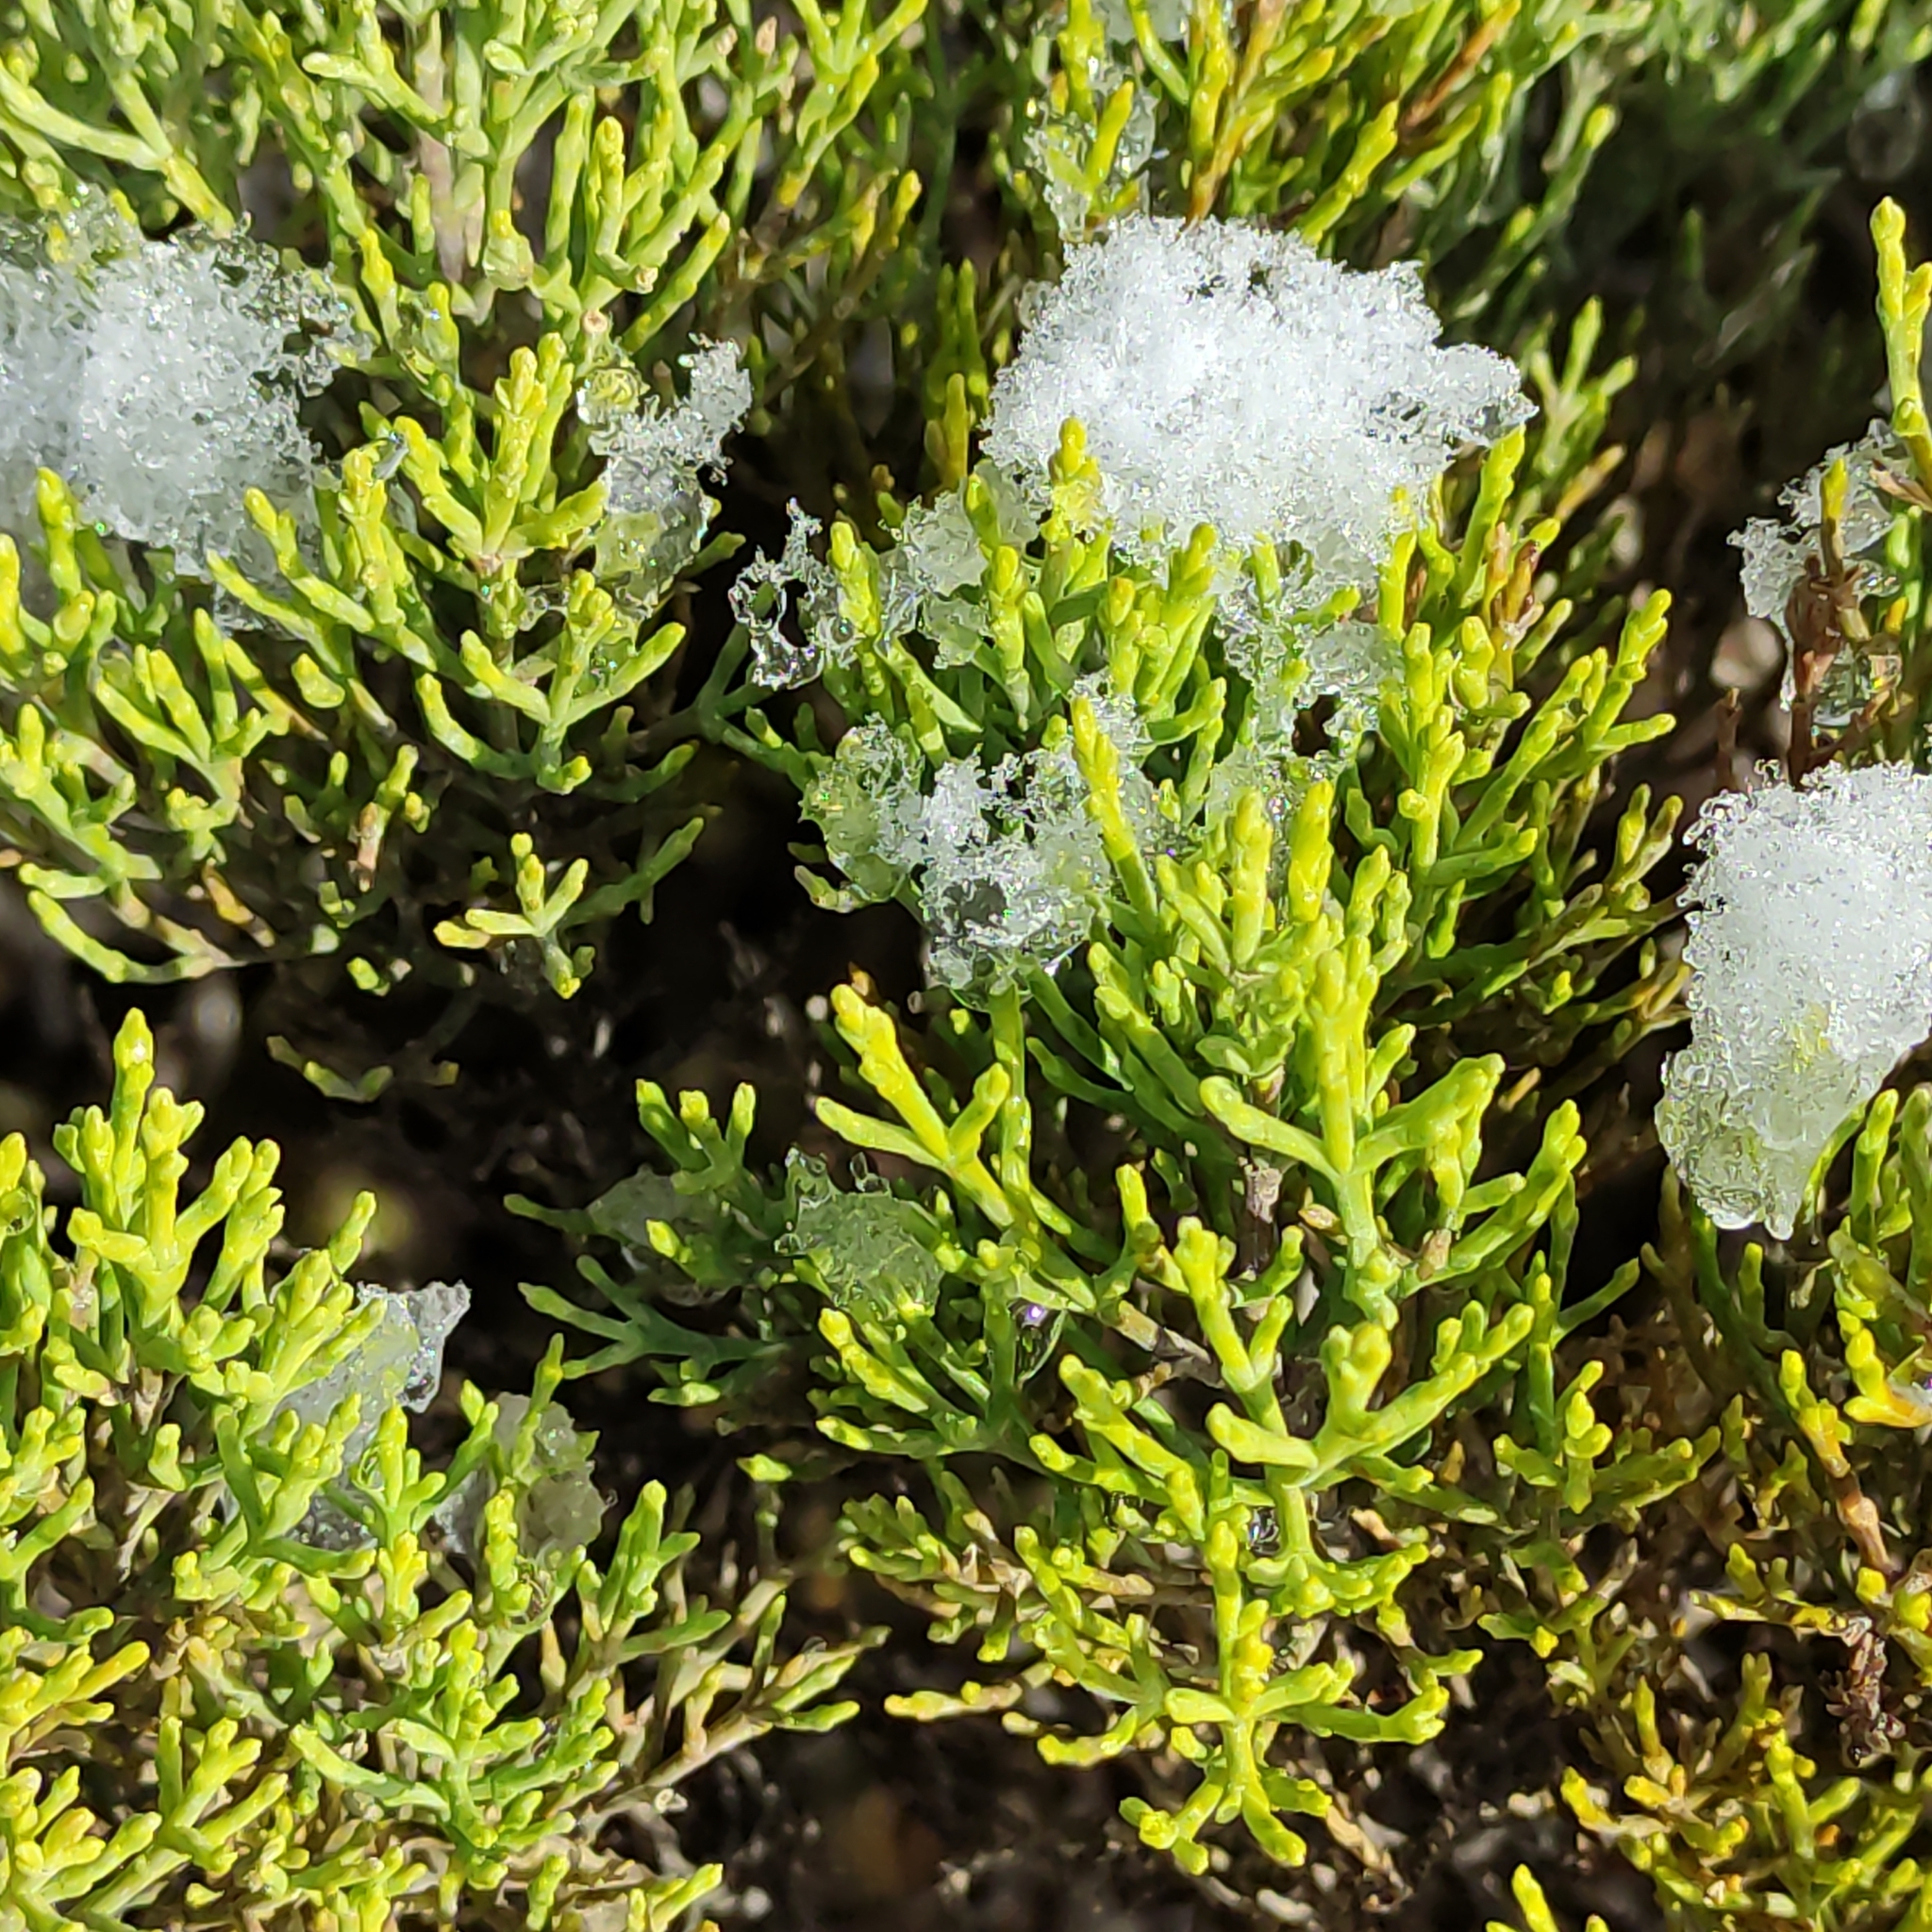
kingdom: Plantae
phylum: Tracheophyta
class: Magnoliopsida
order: Lamiales
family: Plantaginaceae
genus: Veronica
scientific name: Veronica cupressoides
